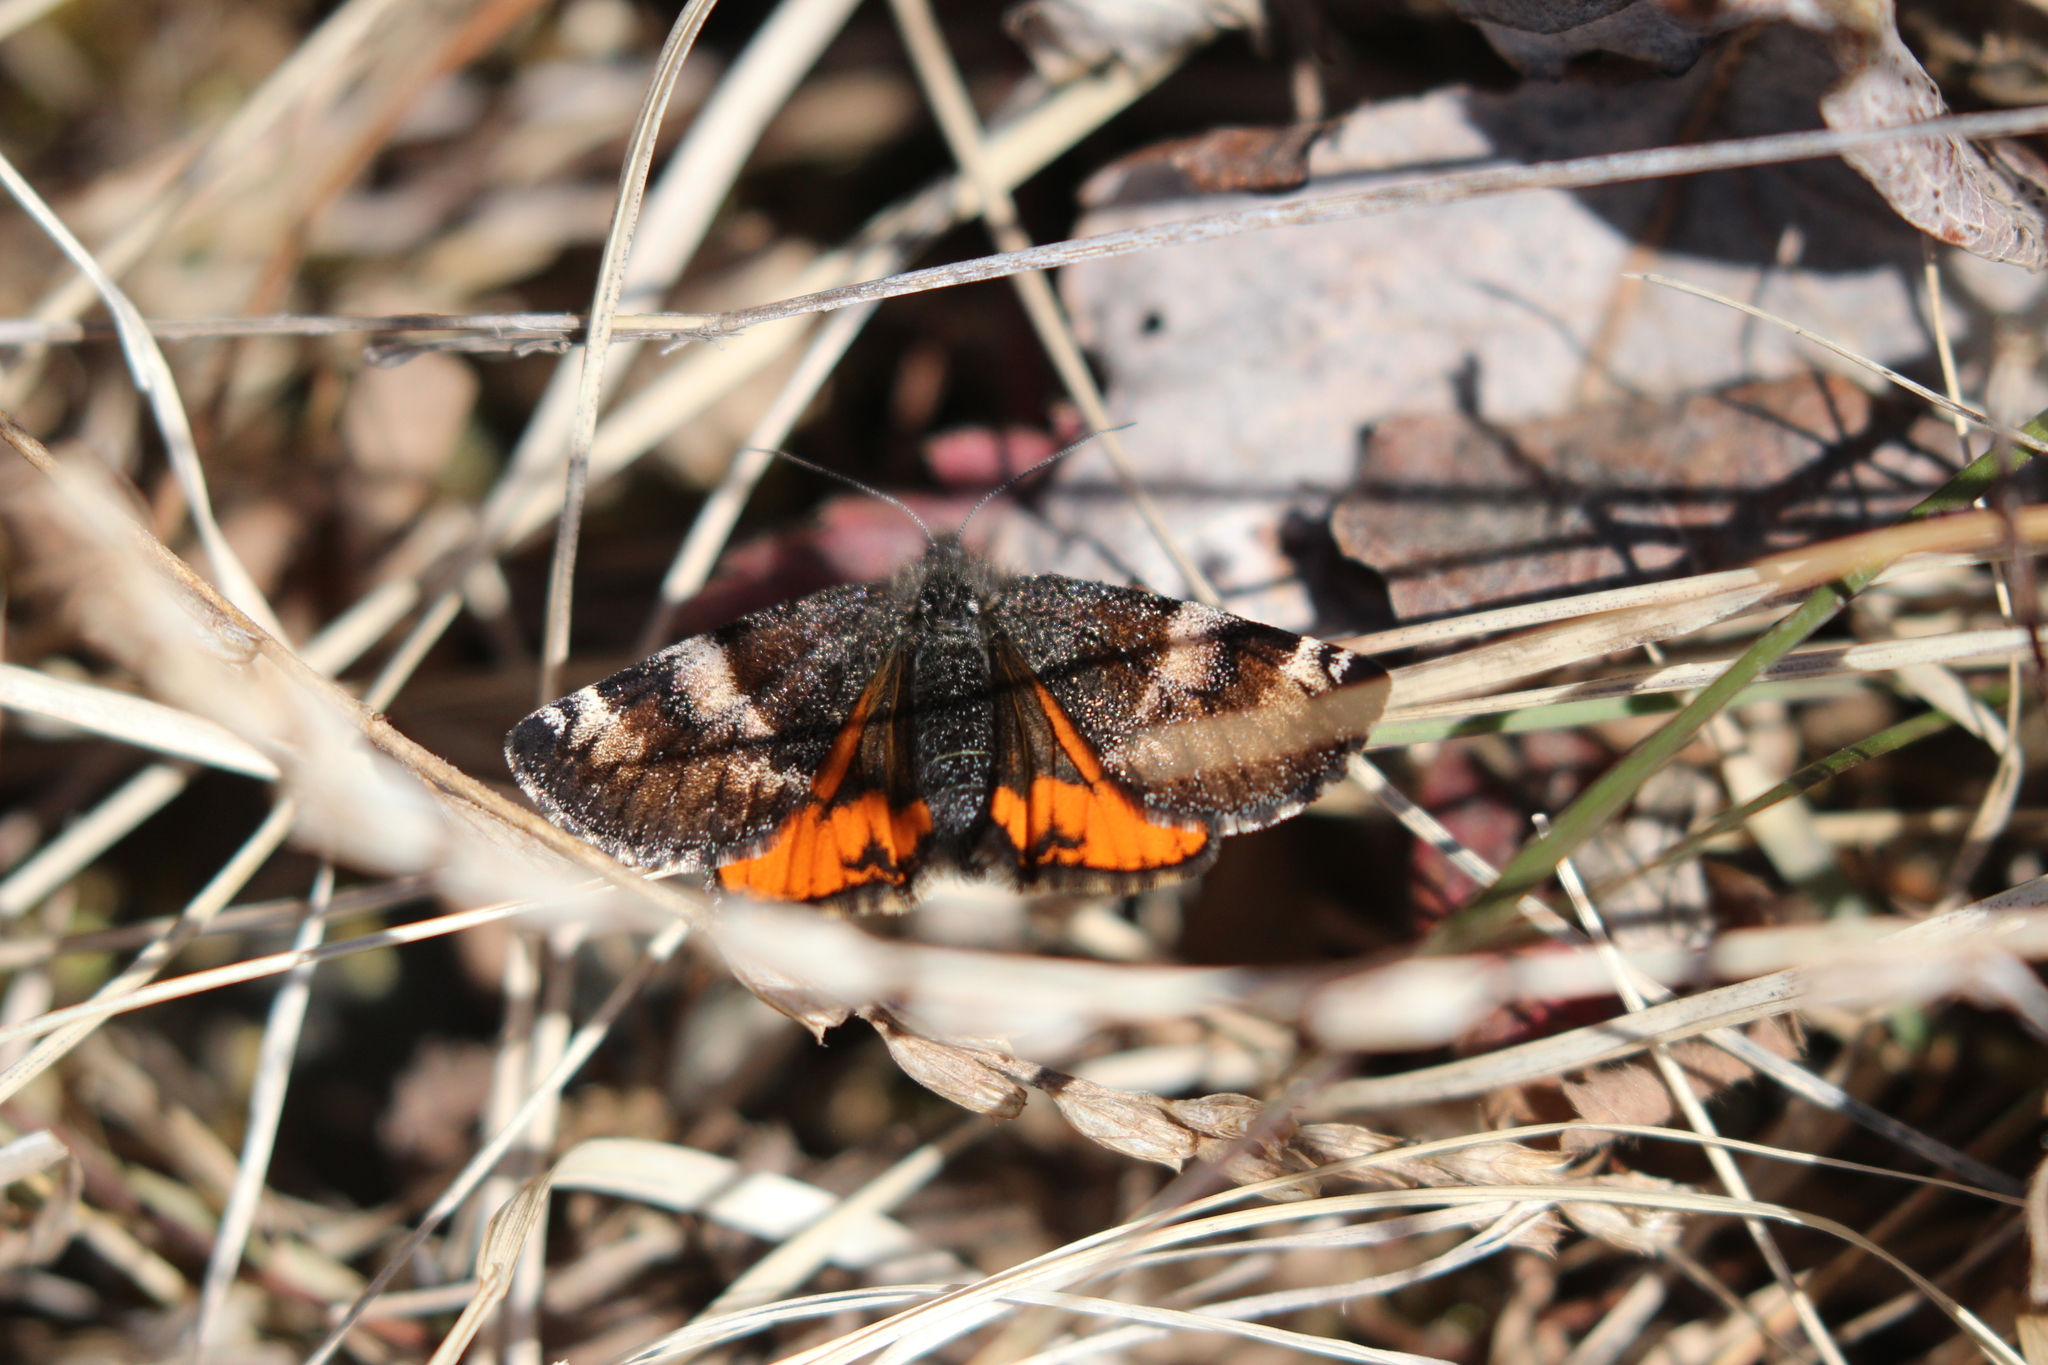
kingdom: Animalia
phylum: Arthropoda
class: Insecta
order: Lepidoptera
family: Geometridae
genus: Archiearis
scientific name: Archiearis infans
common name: First born geometer
